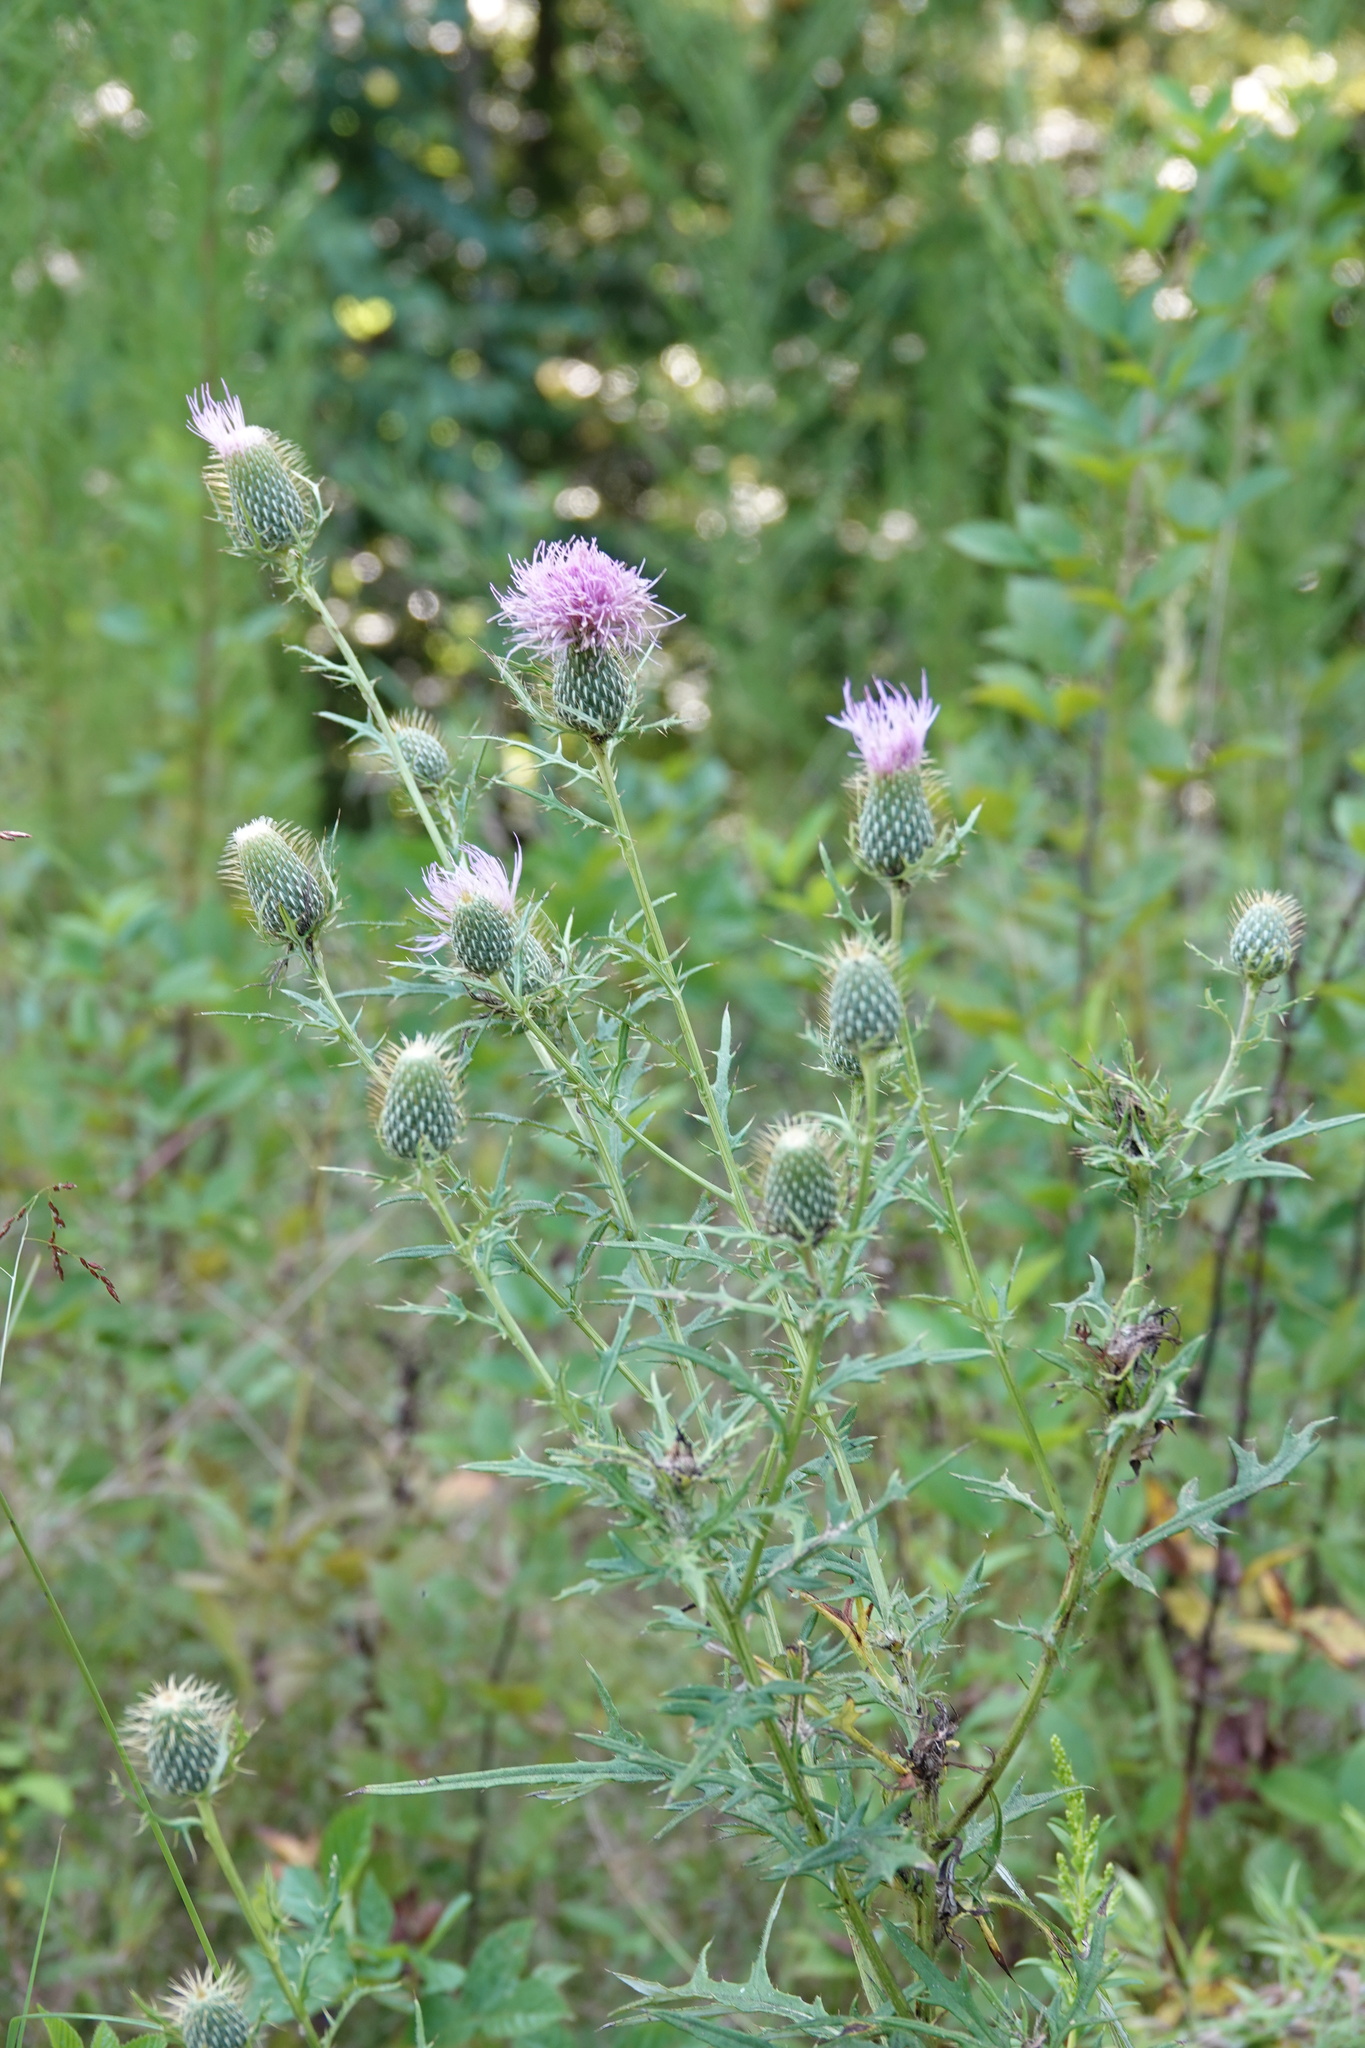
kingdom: Plantae
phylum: Tracheophyta
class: Magnoliopsida
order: Asterales
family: Asteraceae
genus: Cirsium
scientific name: Cirsium discolor
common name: Field thistle
